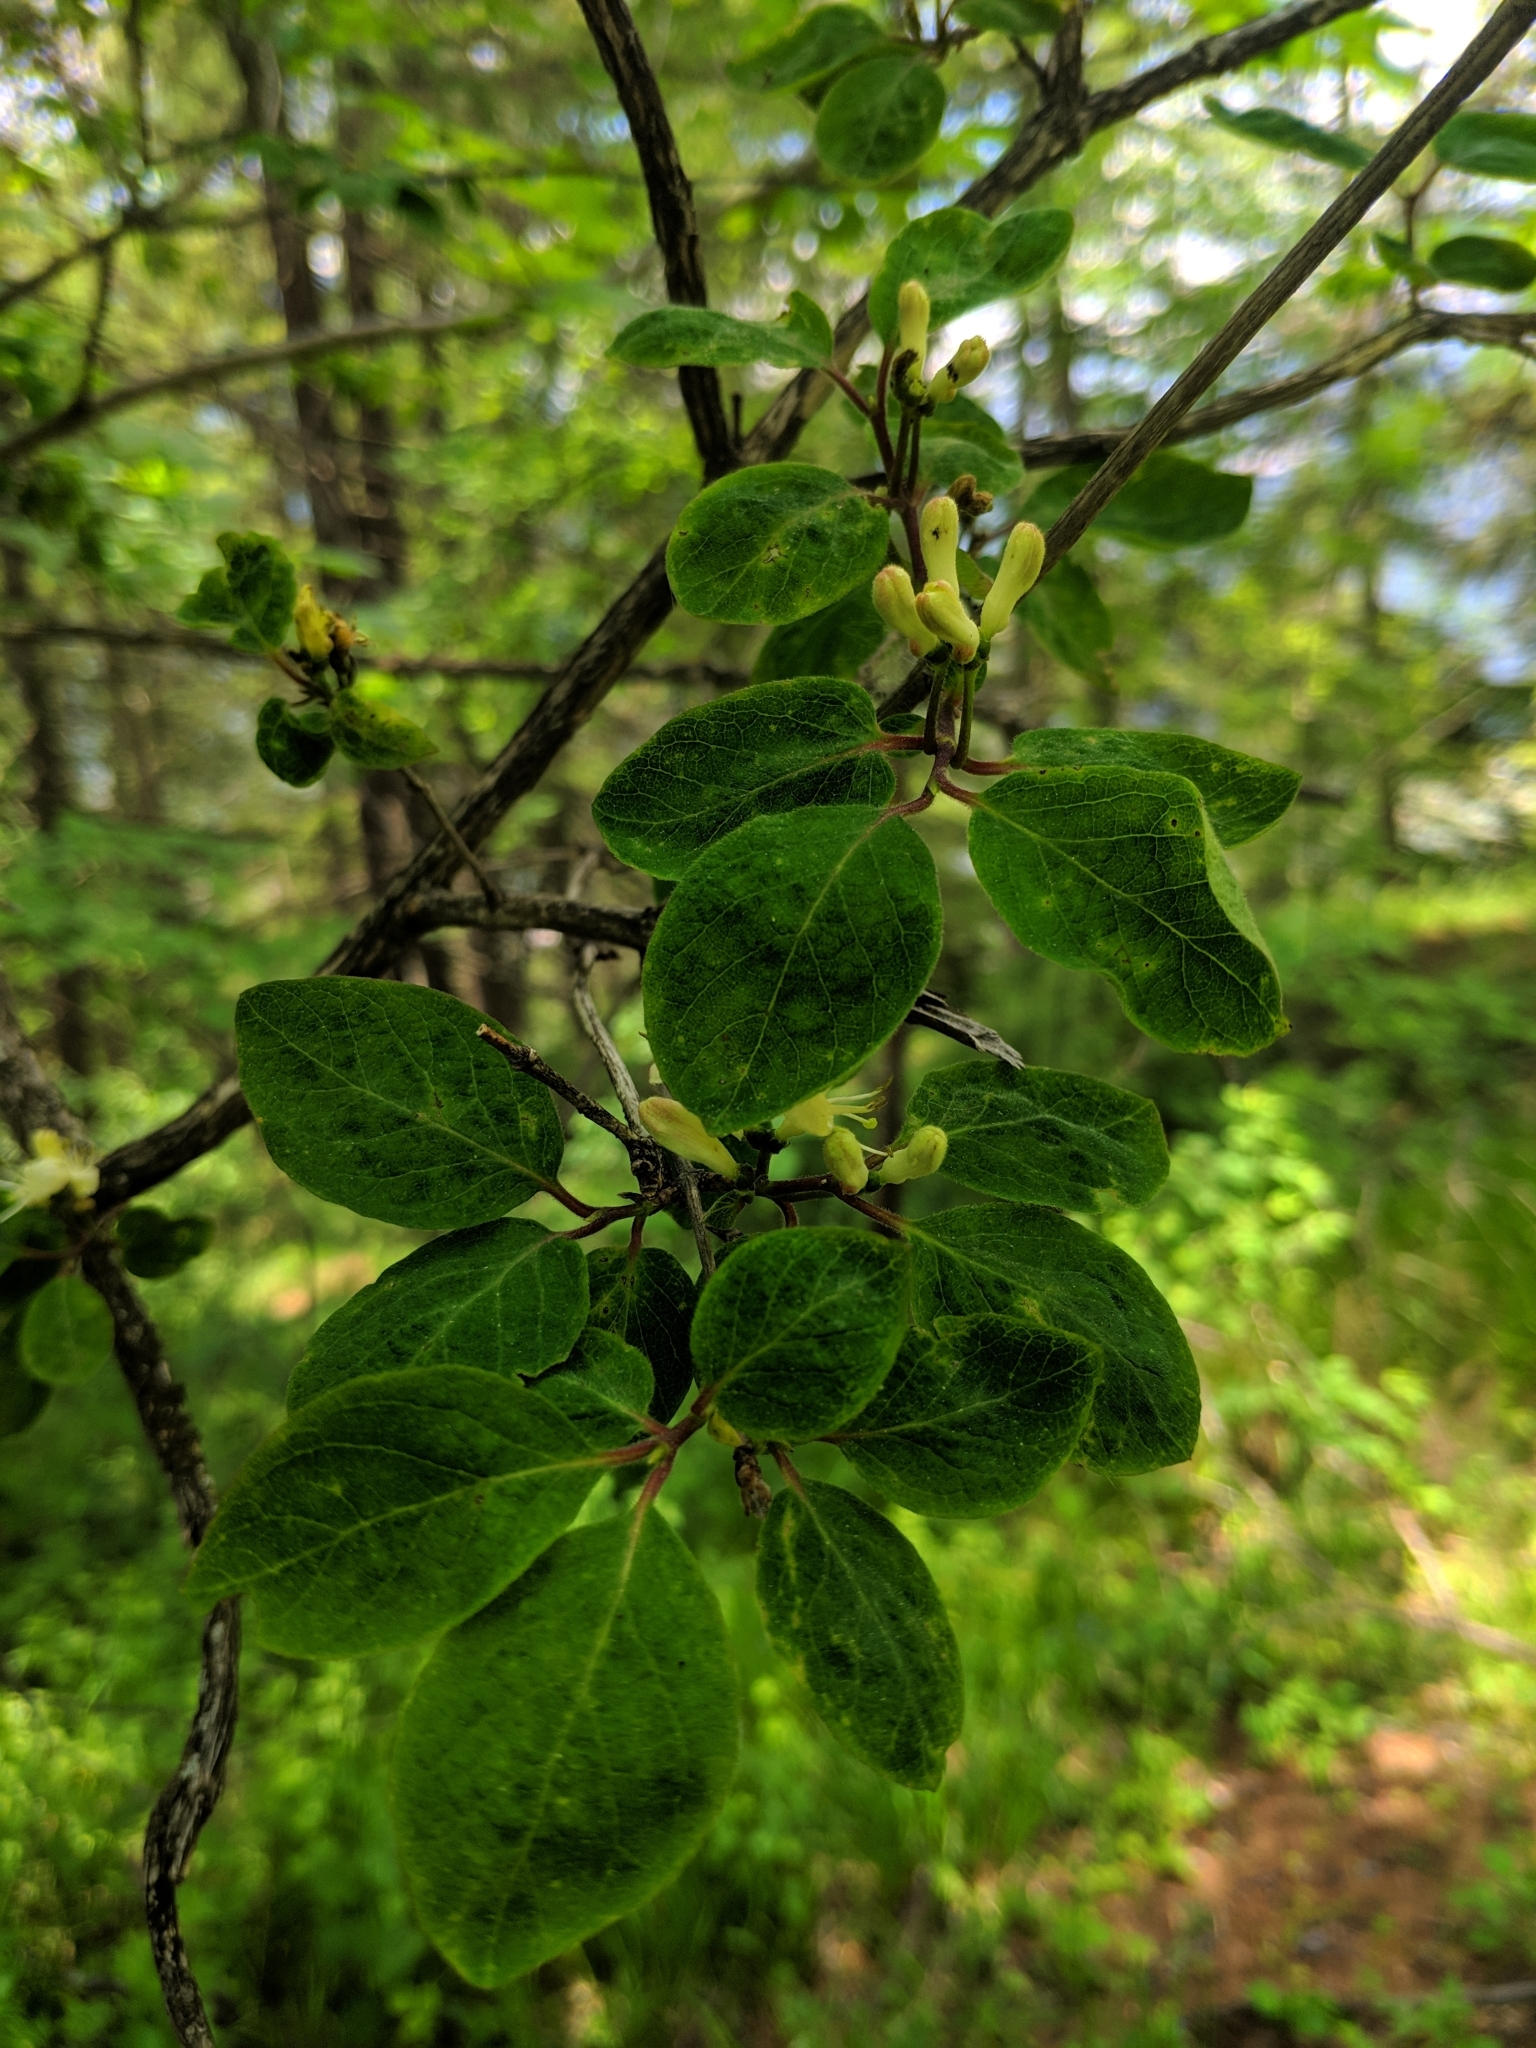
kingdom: Plantae
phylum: Tracheophyta
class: Magnoliopsida
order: Dipsacales
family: Caprifoliaceae
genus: Lonicera
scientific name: Lonicera xylosteum
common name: Fly honeysuckle
